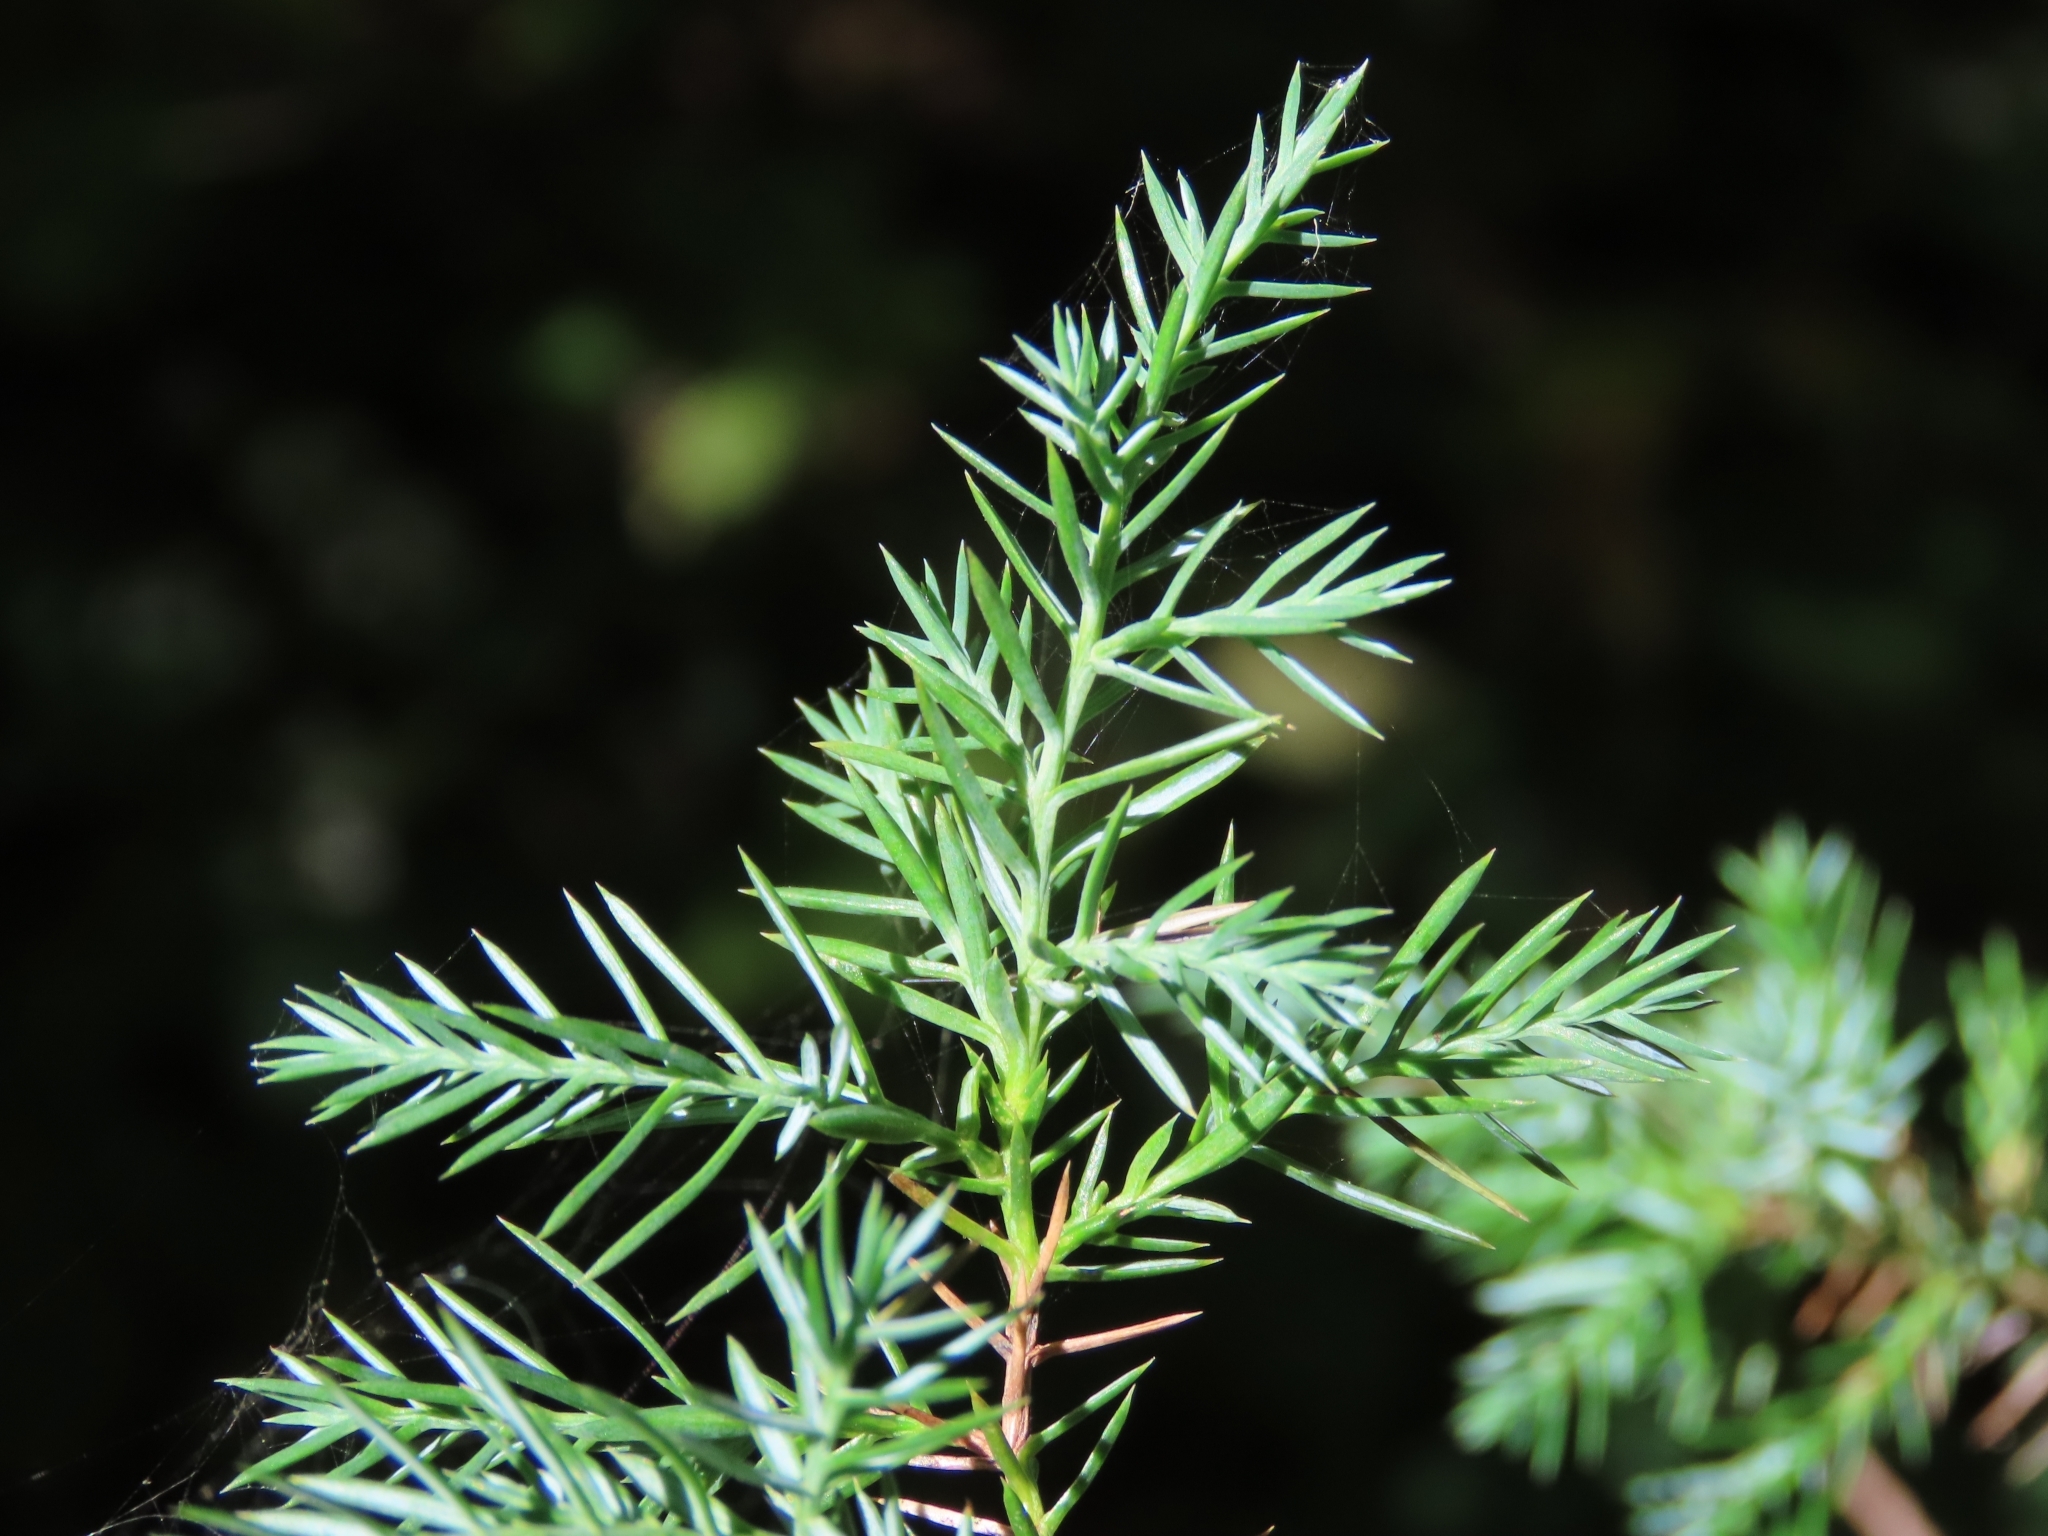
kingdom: Plantae
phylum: Tracheophyta
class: Pinopsida
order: Pinales
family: Cupressaceae
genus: Juniperus
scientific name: Juniperus virginiana
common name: Red juniper
